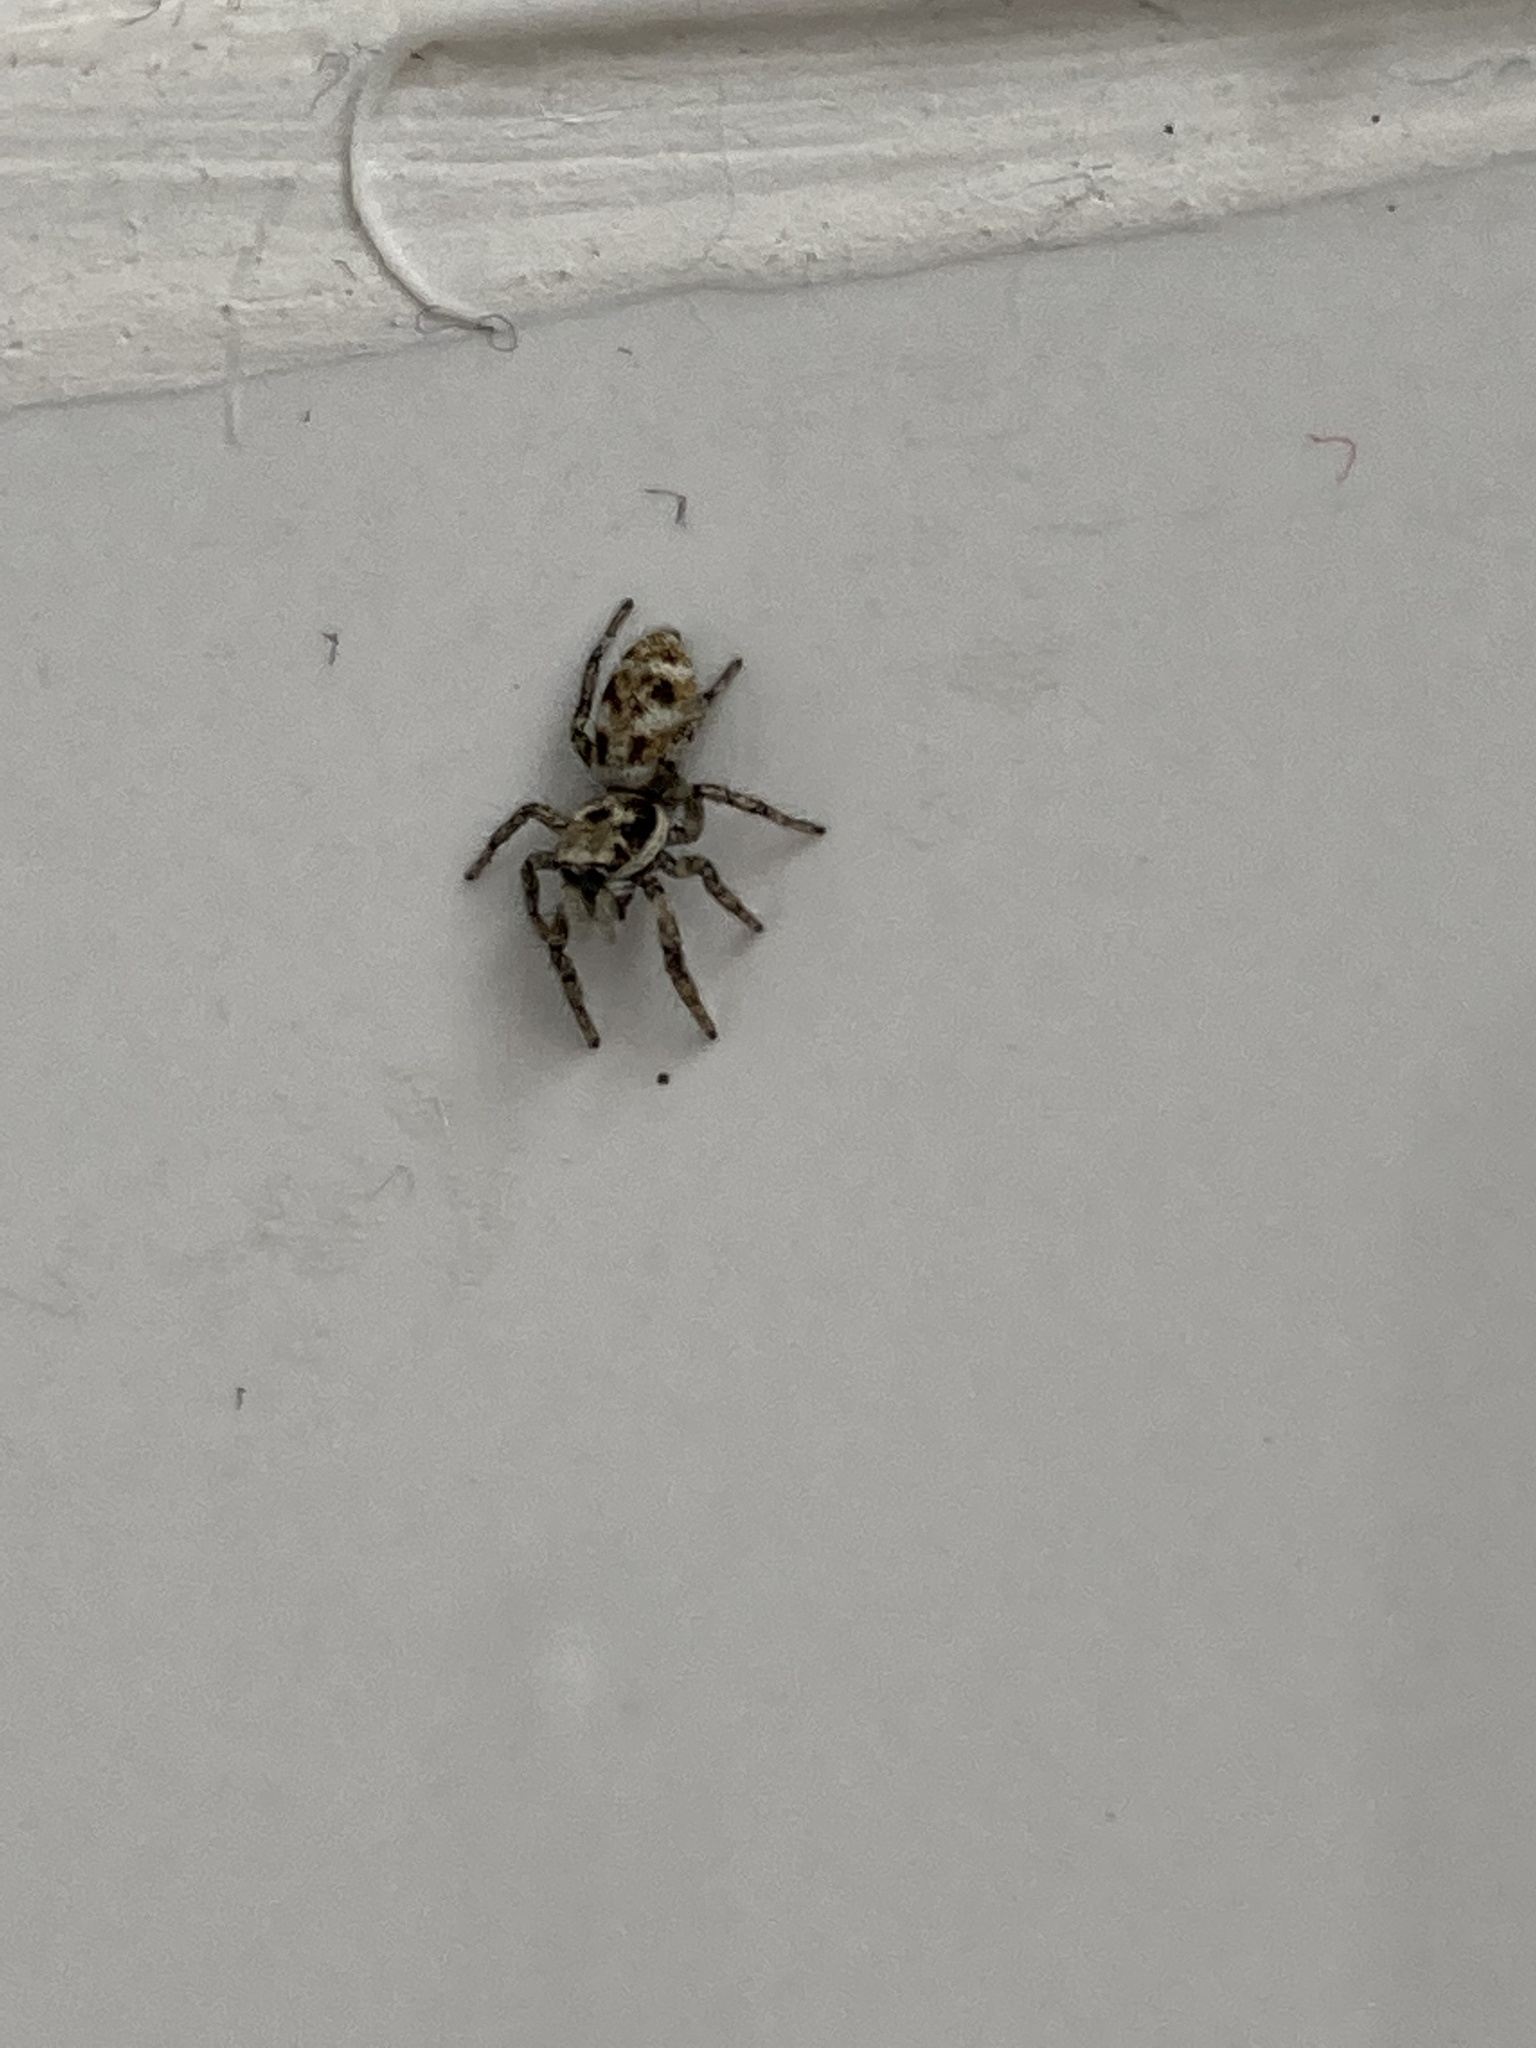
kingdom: Animalia
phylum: Arthropoda
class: Arachnida
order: Araneae
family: Salticidae
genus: Salticus
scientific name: Salticus scenicus
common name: Zebra jumper
